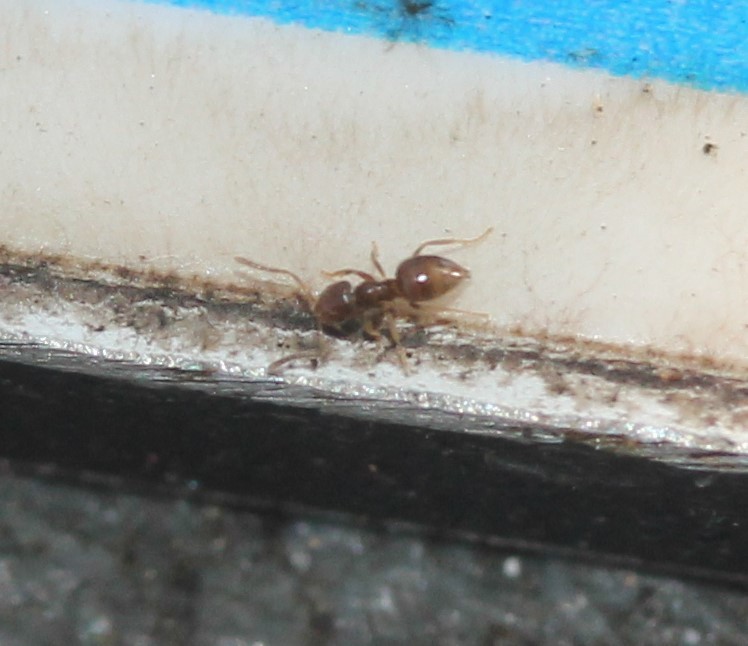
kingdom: Animalia
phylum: Arthropoda
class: Insecta
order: Hymenoptera
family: Formicidae
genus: Brachymyrmex
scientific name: Brachymyrmex obscurior
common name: Obscure rover ant
